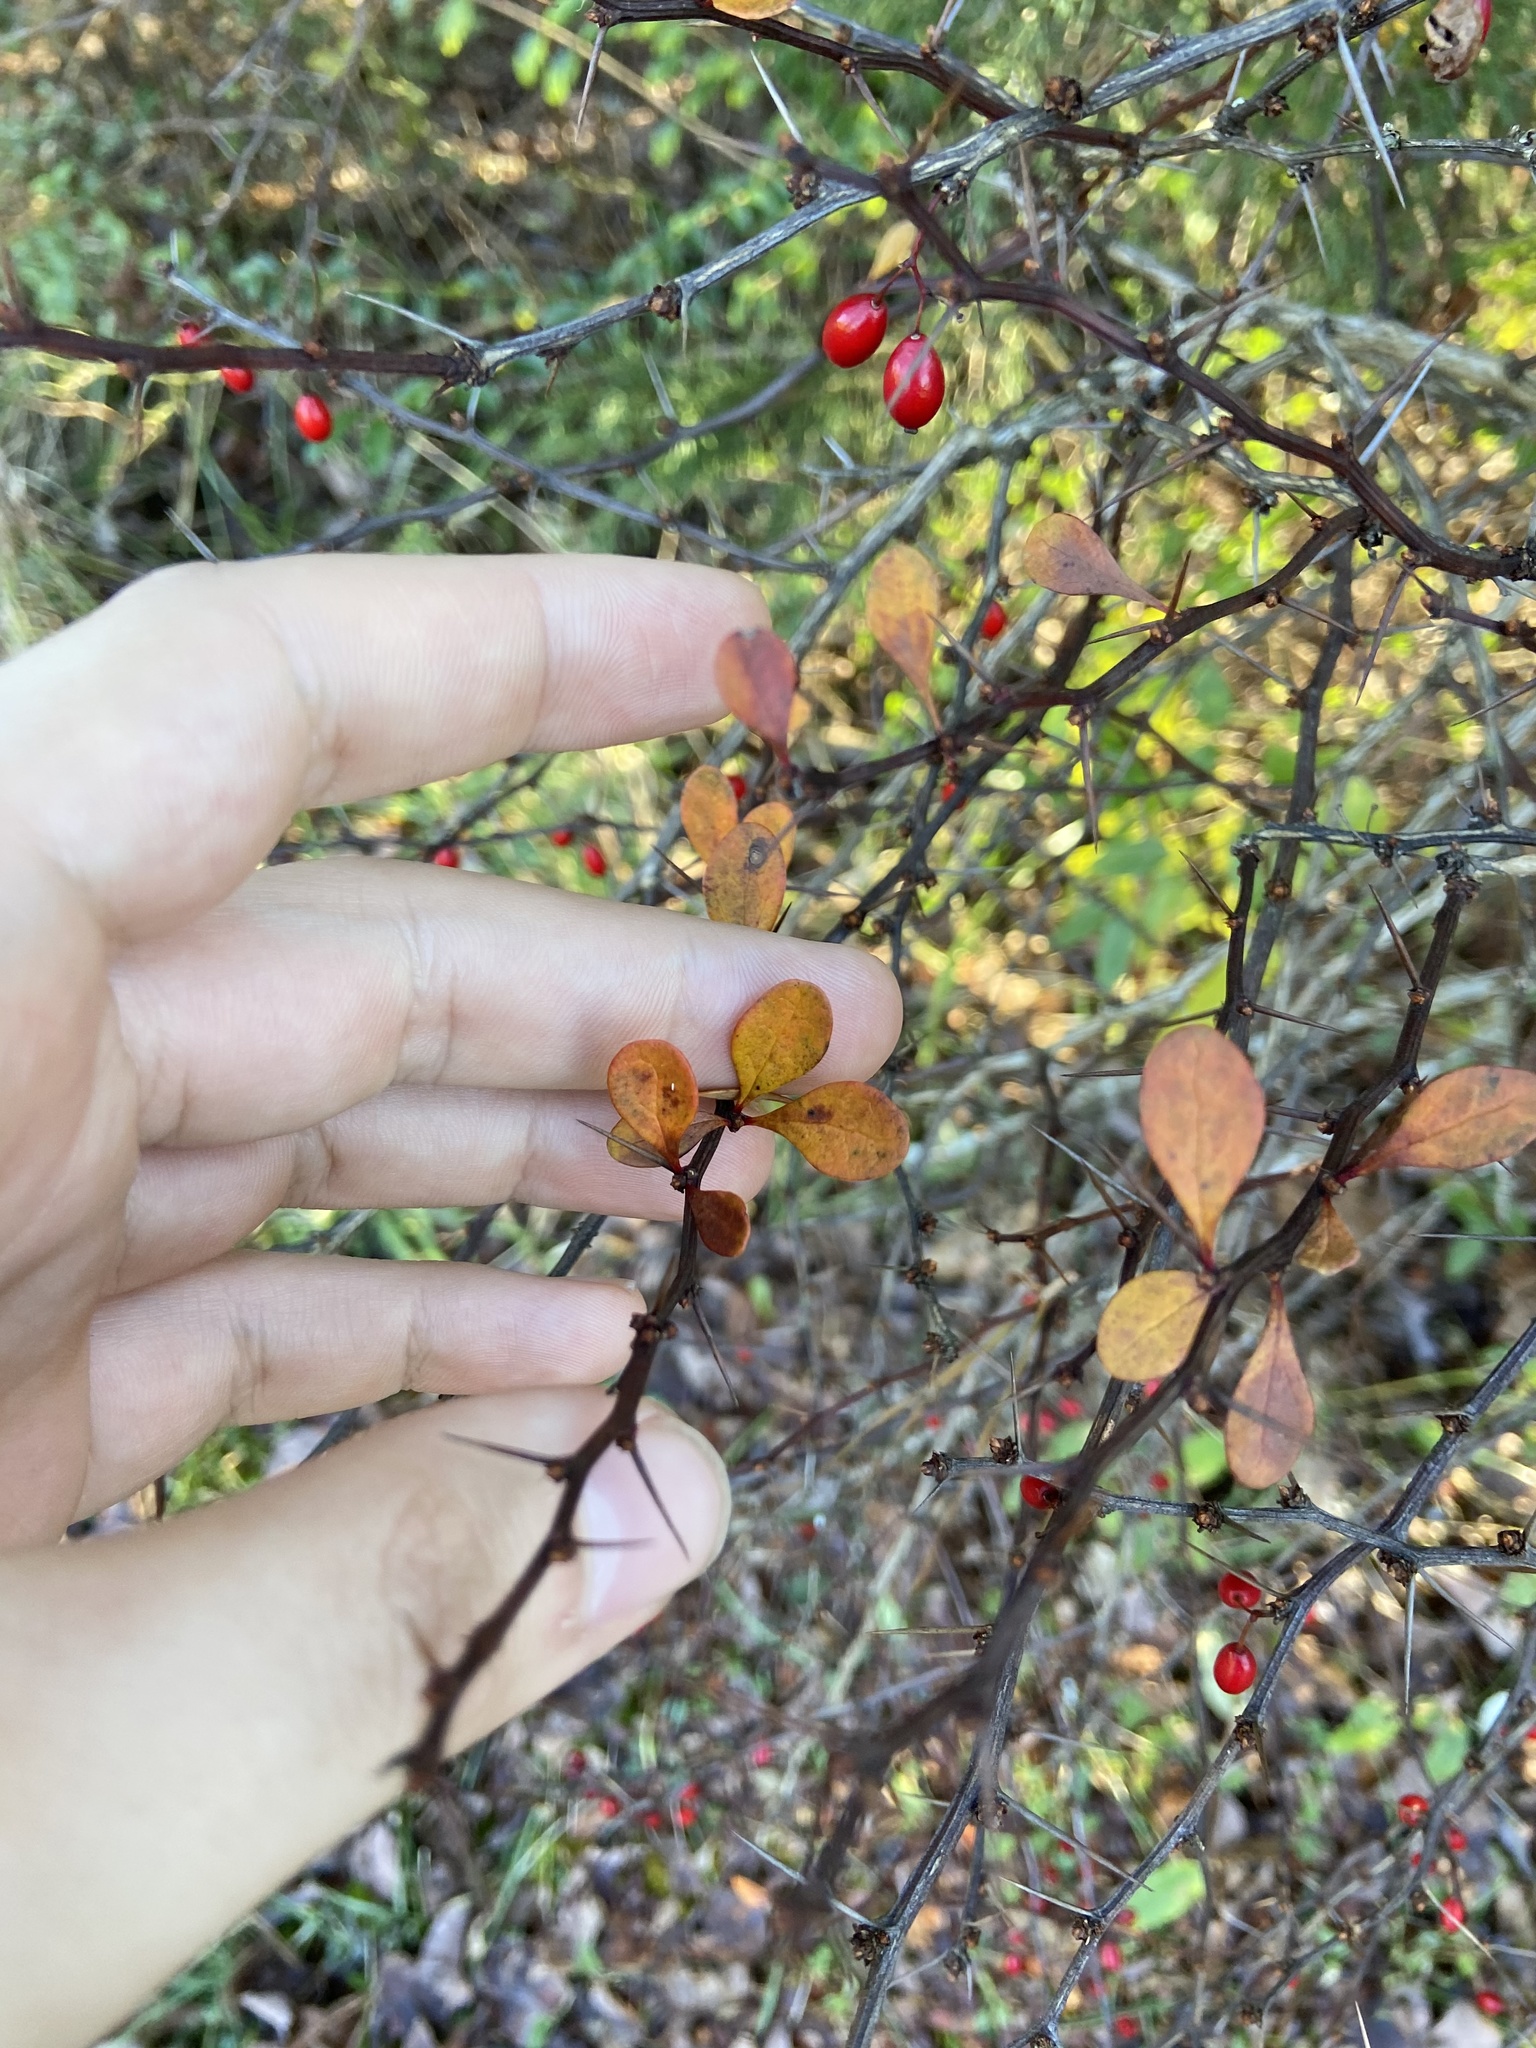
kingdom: Plantae
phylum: Tracheophyta
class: Magnoliopsida
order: Ranunculales
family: Berberidaceae
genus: Berberis
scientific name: Berberis thunbergii
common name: Japanese barberry
